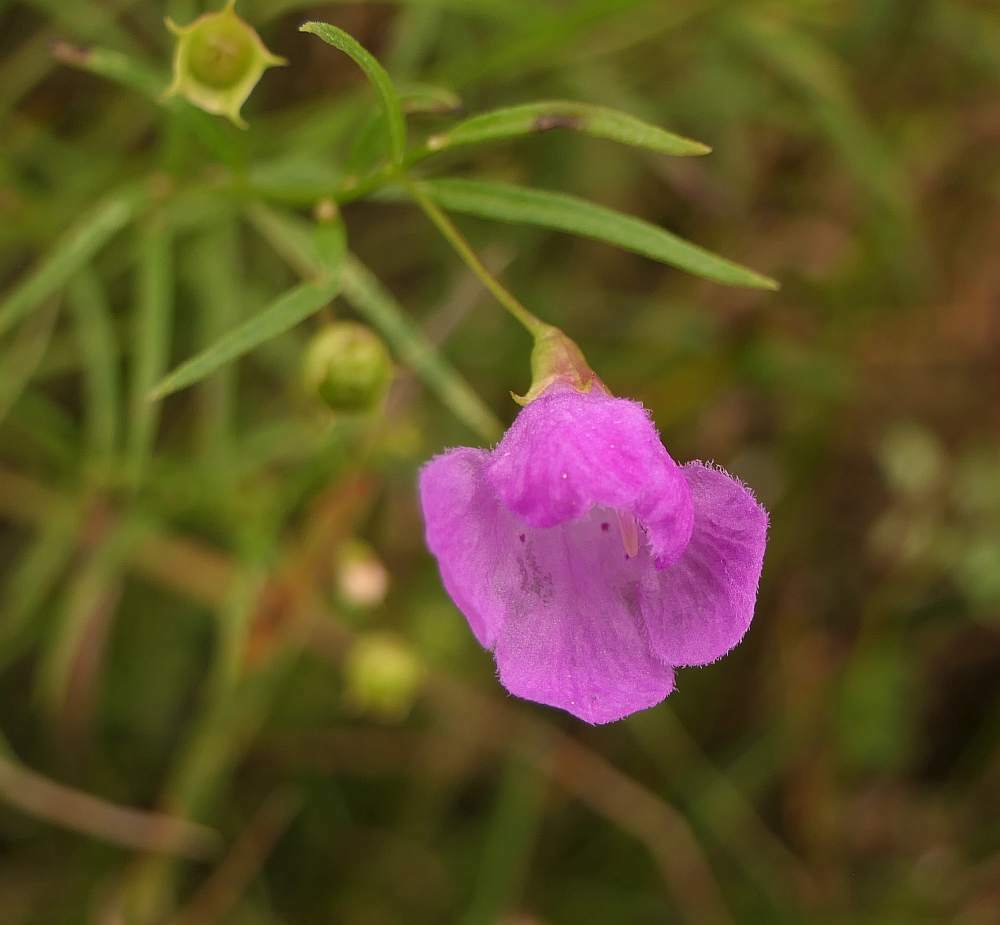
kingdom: Plantae
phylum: Tracheophyta
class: Magnoliopsida
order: Lamiales
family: Orobanchaceae
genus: Agalinis
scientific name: Agalinis tenuifolia
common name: Slender agalinis
